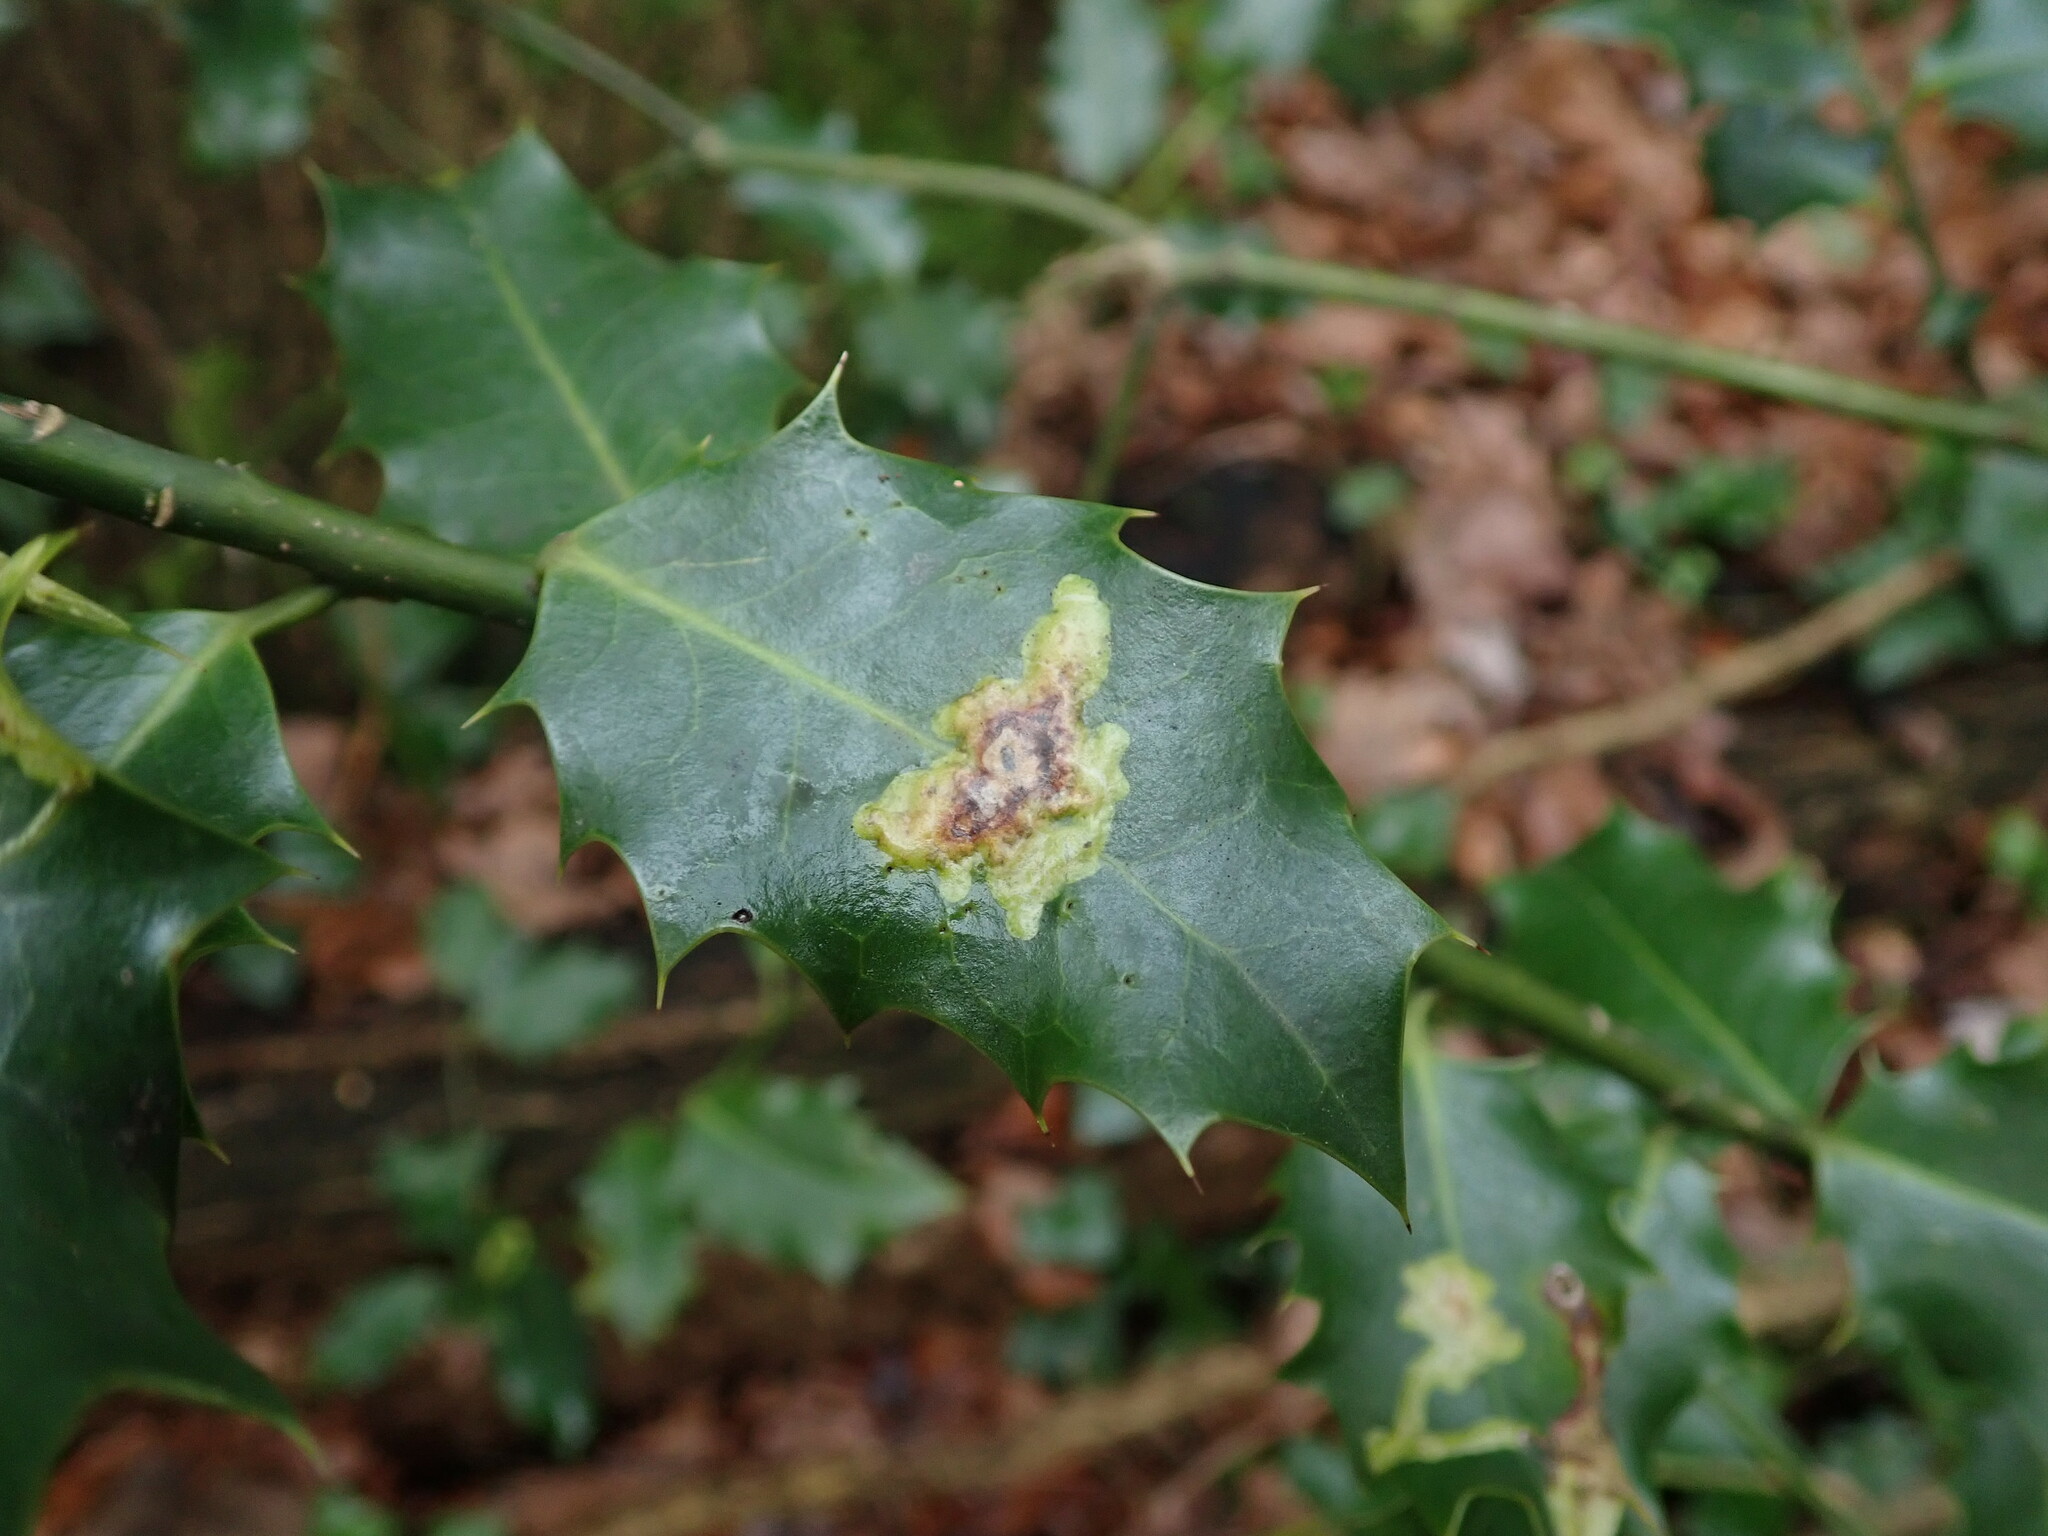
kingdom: Animalia
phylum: Arthropoda
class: Insecta
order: Diptera
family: Agromyzidae
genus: Phytomyza
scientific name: Phytomyza ilicis
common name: Holly leafminer
